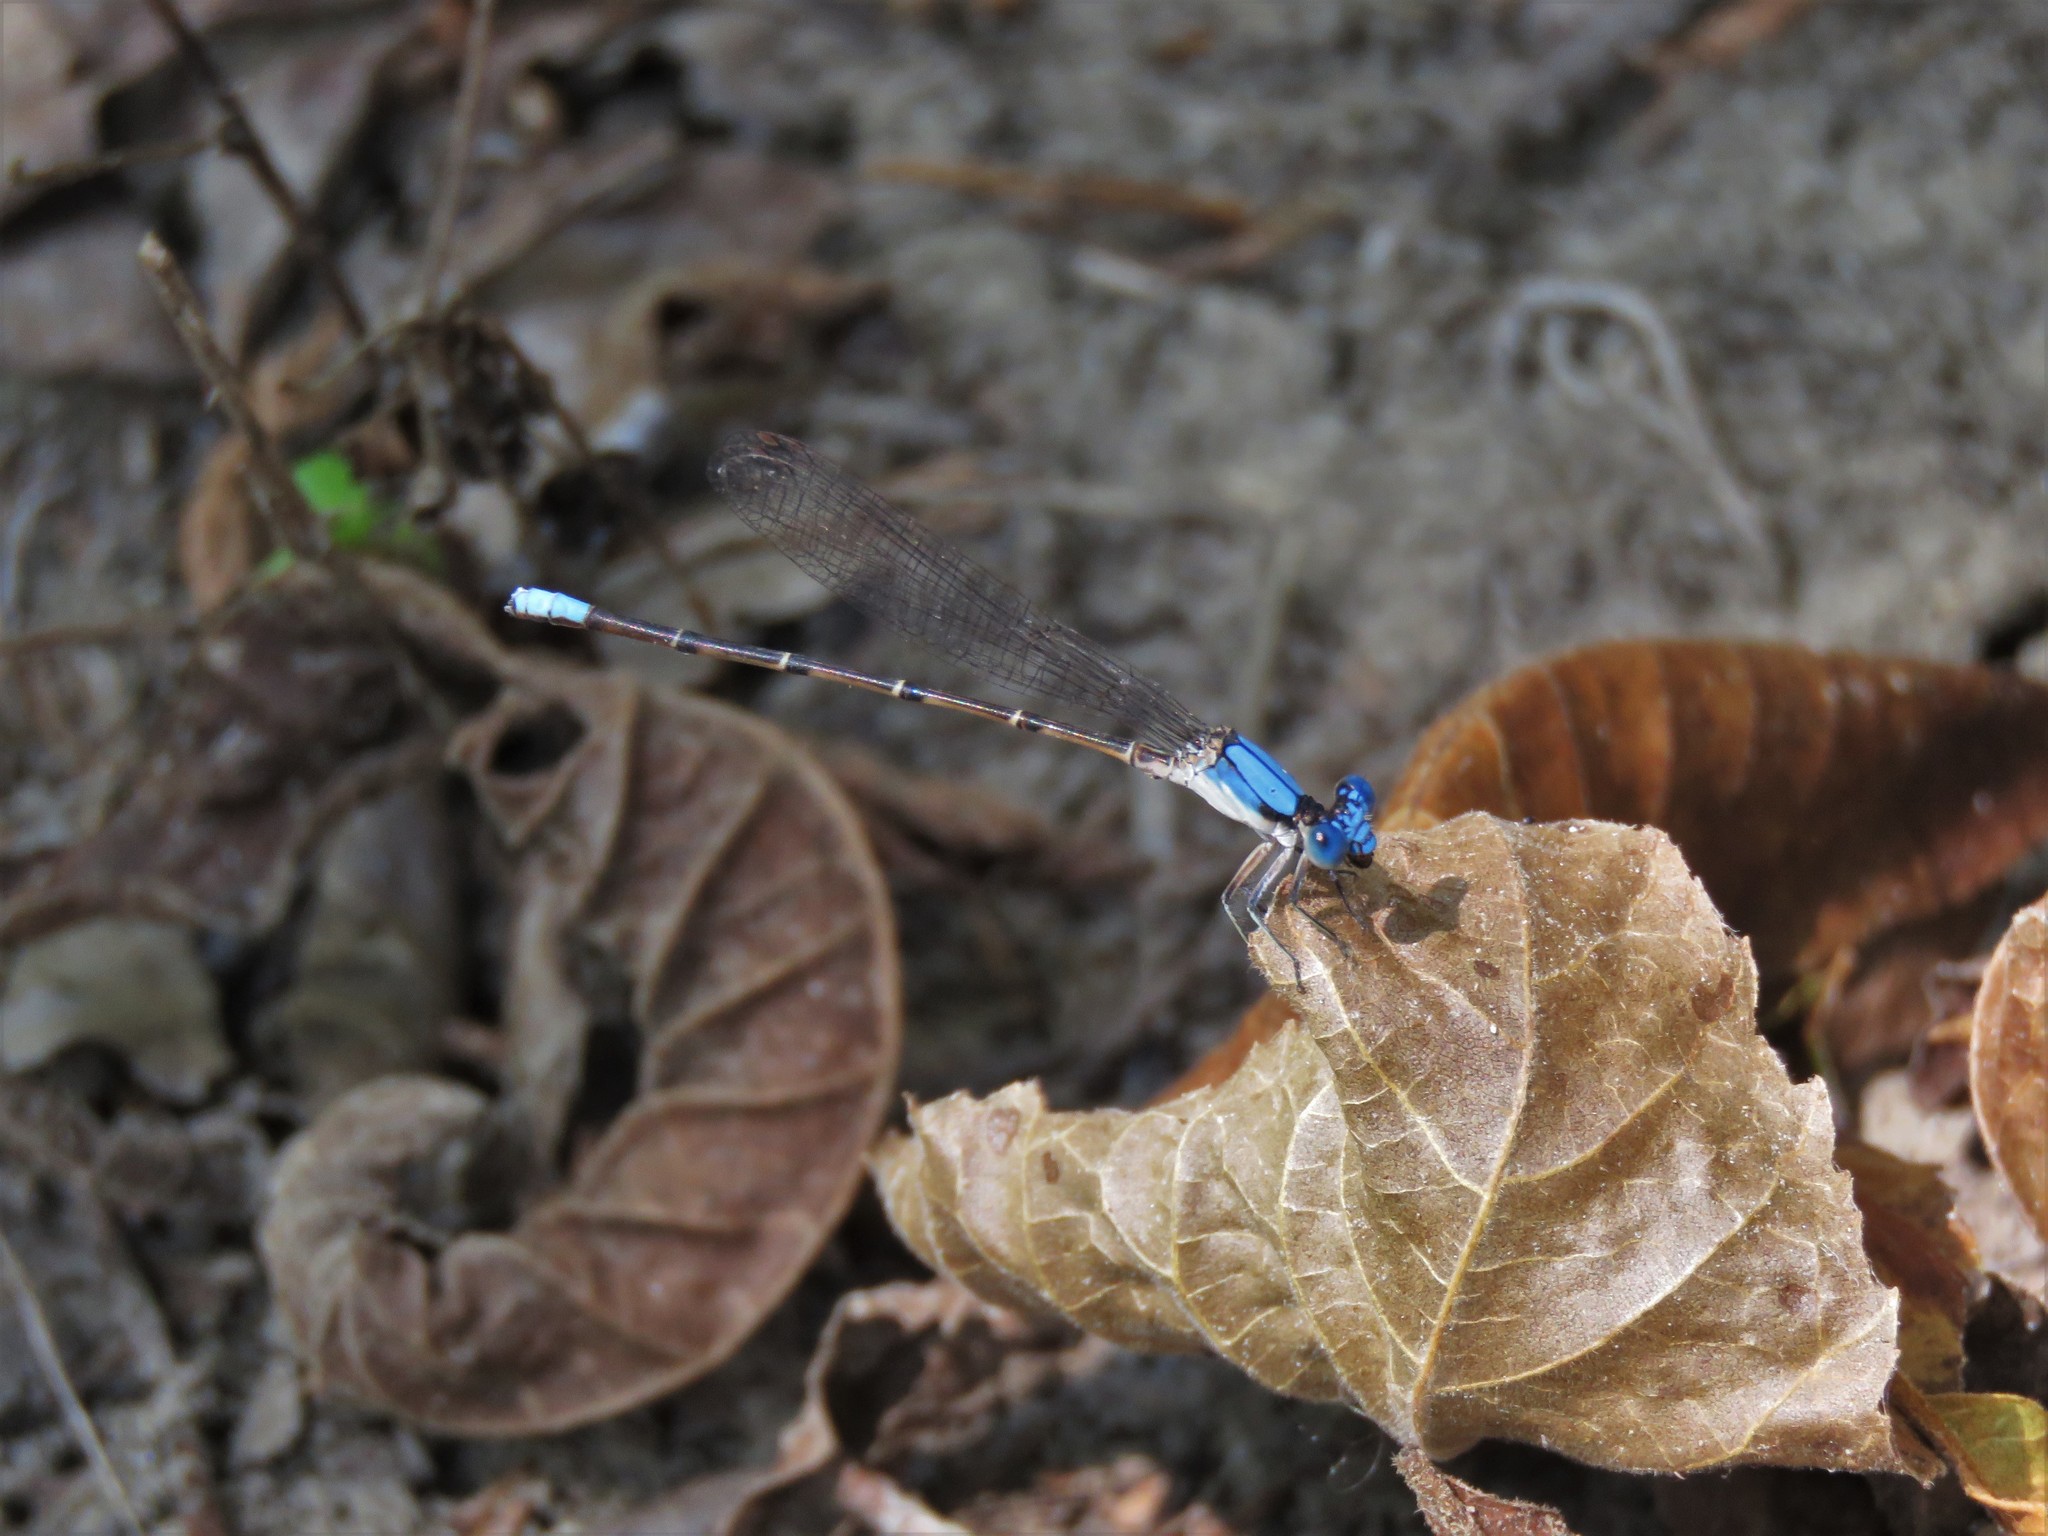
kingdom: Animalia
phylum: Arthropoda
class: Insecta
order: Odonata
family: Coenagrionidae
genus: Argia
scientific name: Argia apicalis
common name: Blue-fronted dancer
